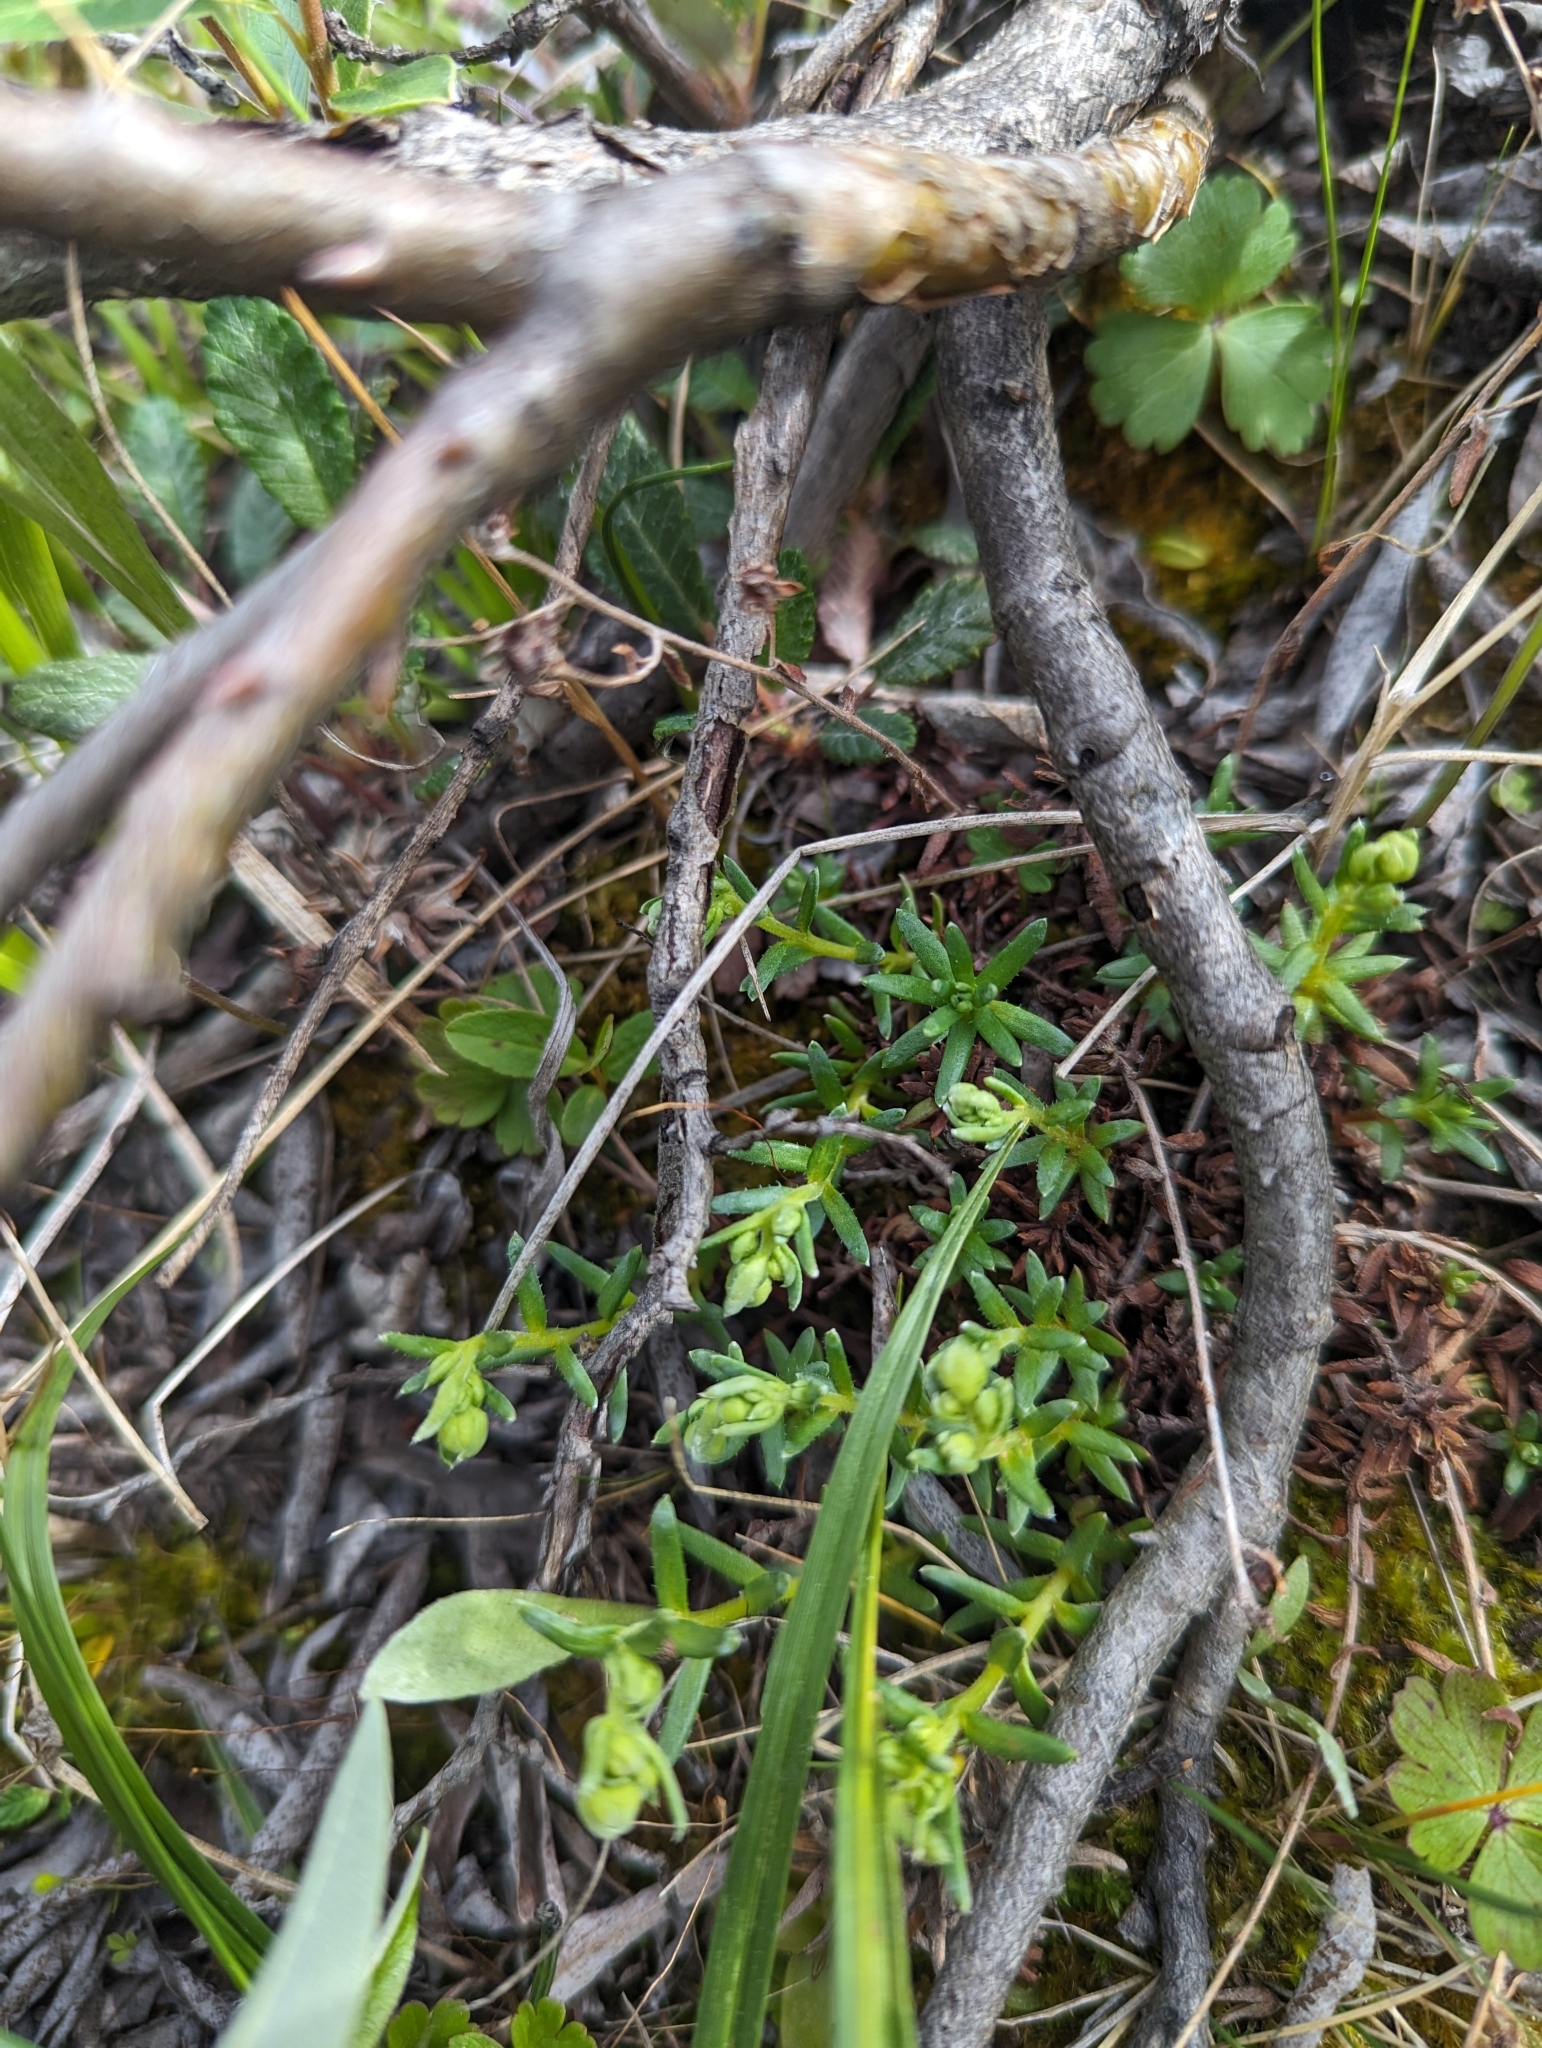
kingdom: Plantae
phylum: Tracheophyta
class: Magnoliopsida
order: Saxifragales
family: Saxifragaceae
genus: Saxifraga
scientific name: Saxifraga aizoides
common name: Yellow mountain saxifrage
